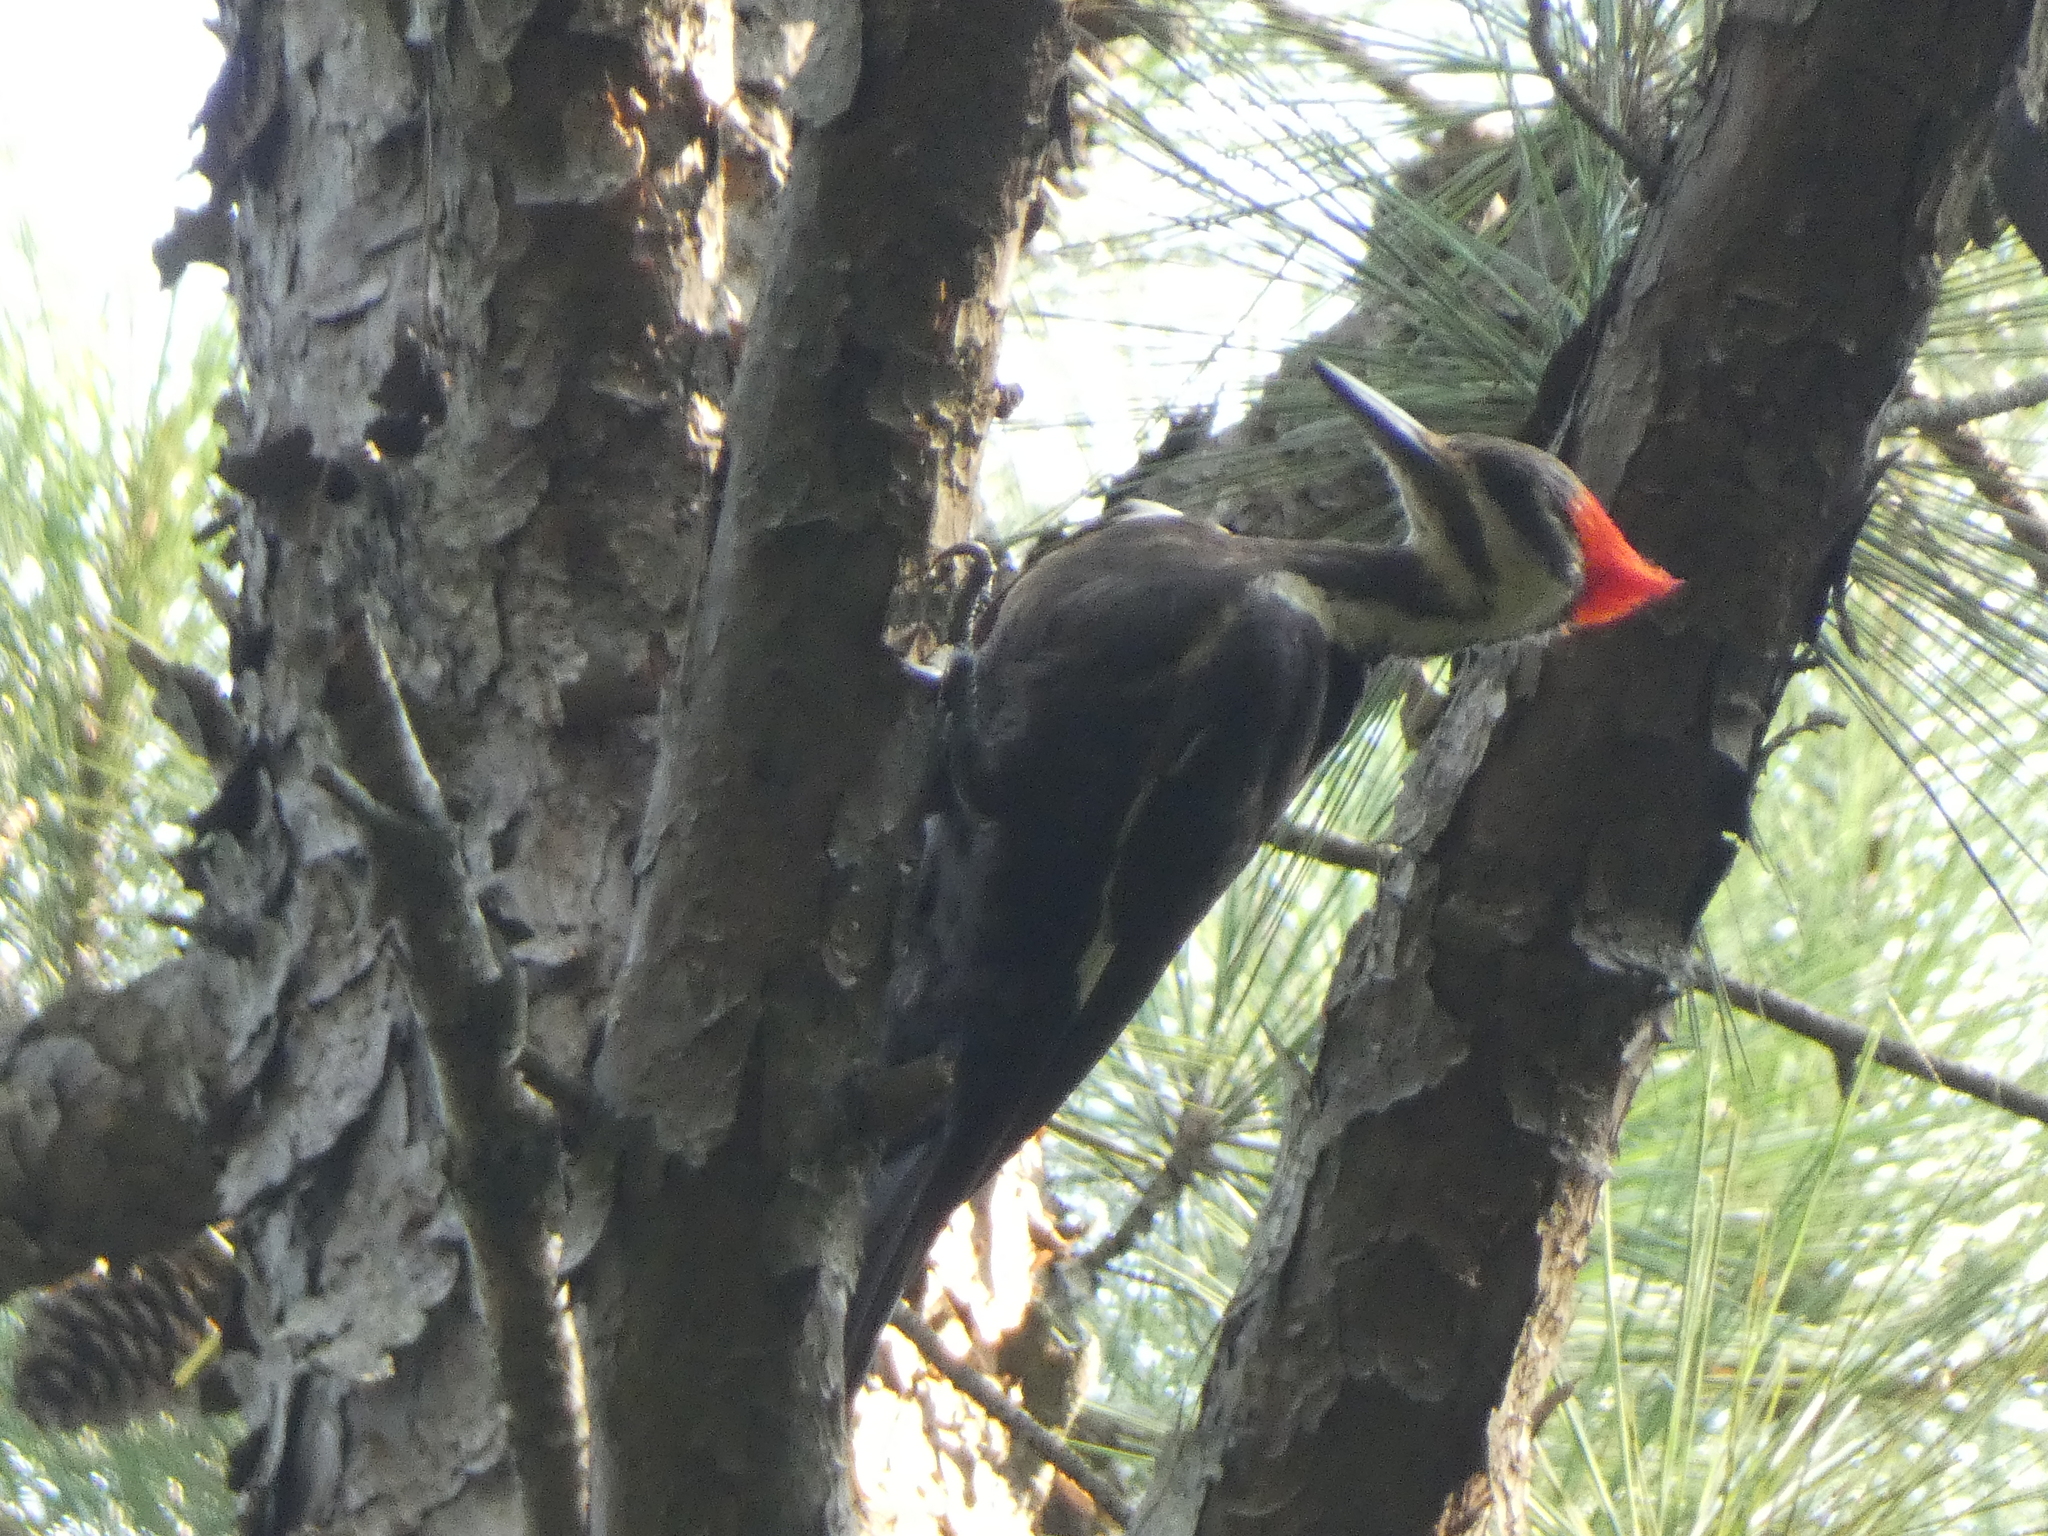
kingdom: Animalia
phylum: Chordata
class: Aves
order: Piciformes
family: Picidae
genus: Dryocopus
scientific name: Dryocopus pileatus
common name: Pileated woodpecker
